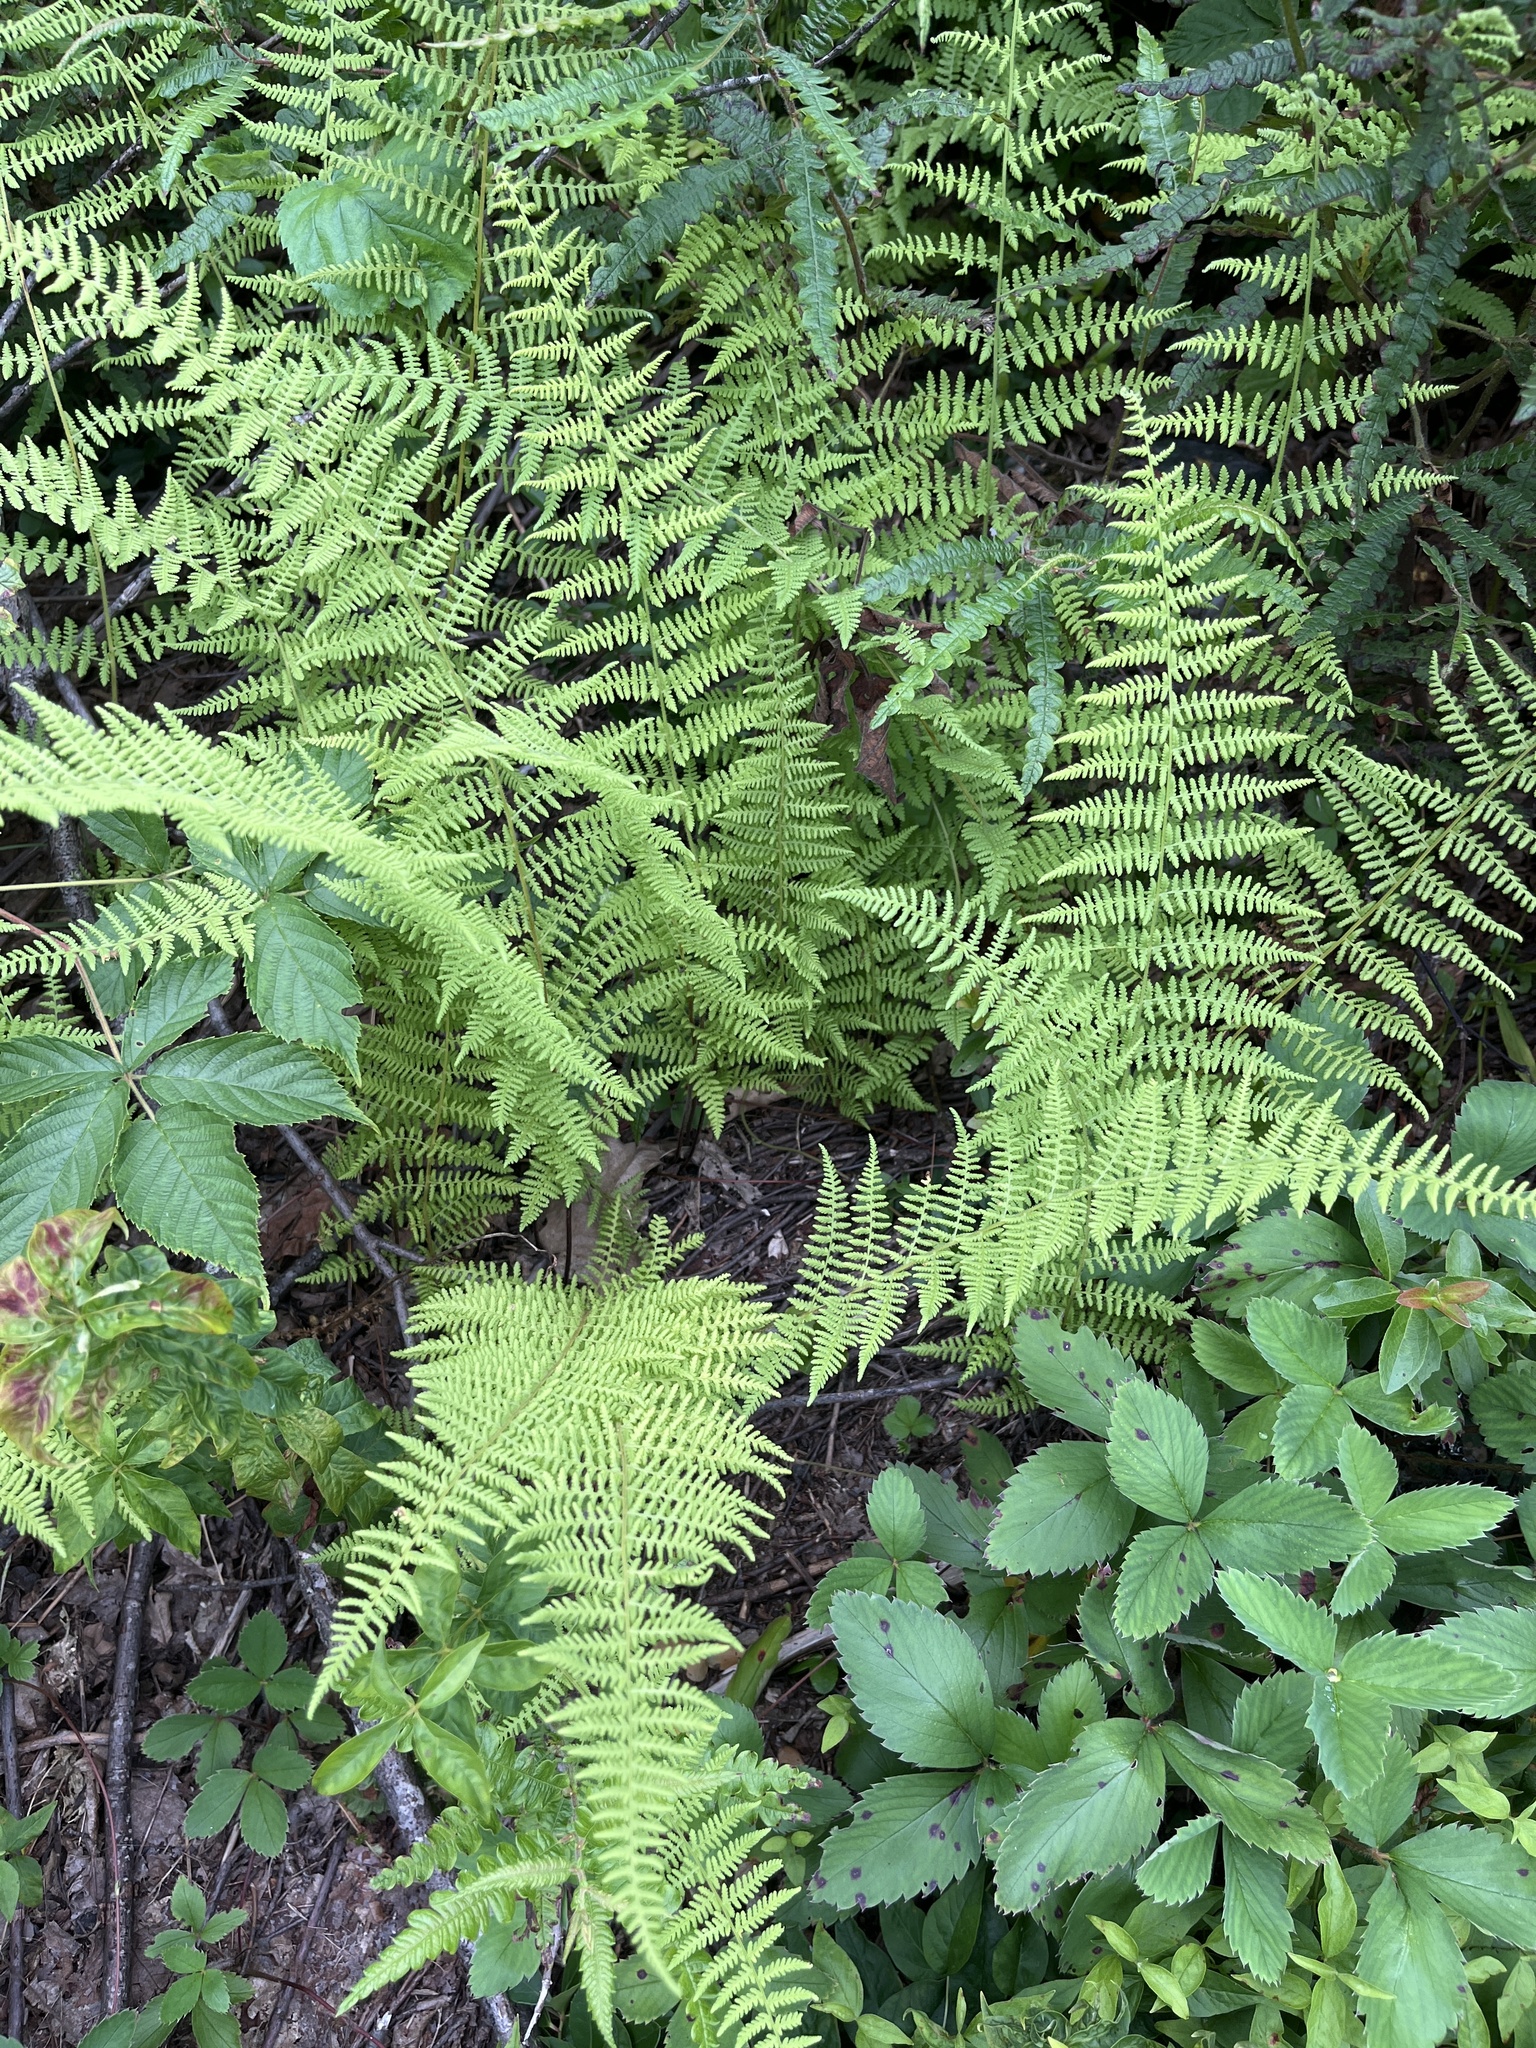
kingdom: Plantae
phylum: Tracheophyta
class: Polypodiopsida
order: Polypodiales
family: Dennstaedtiaceae
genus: Sitobolium
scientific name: Sitobolium punctilobum
